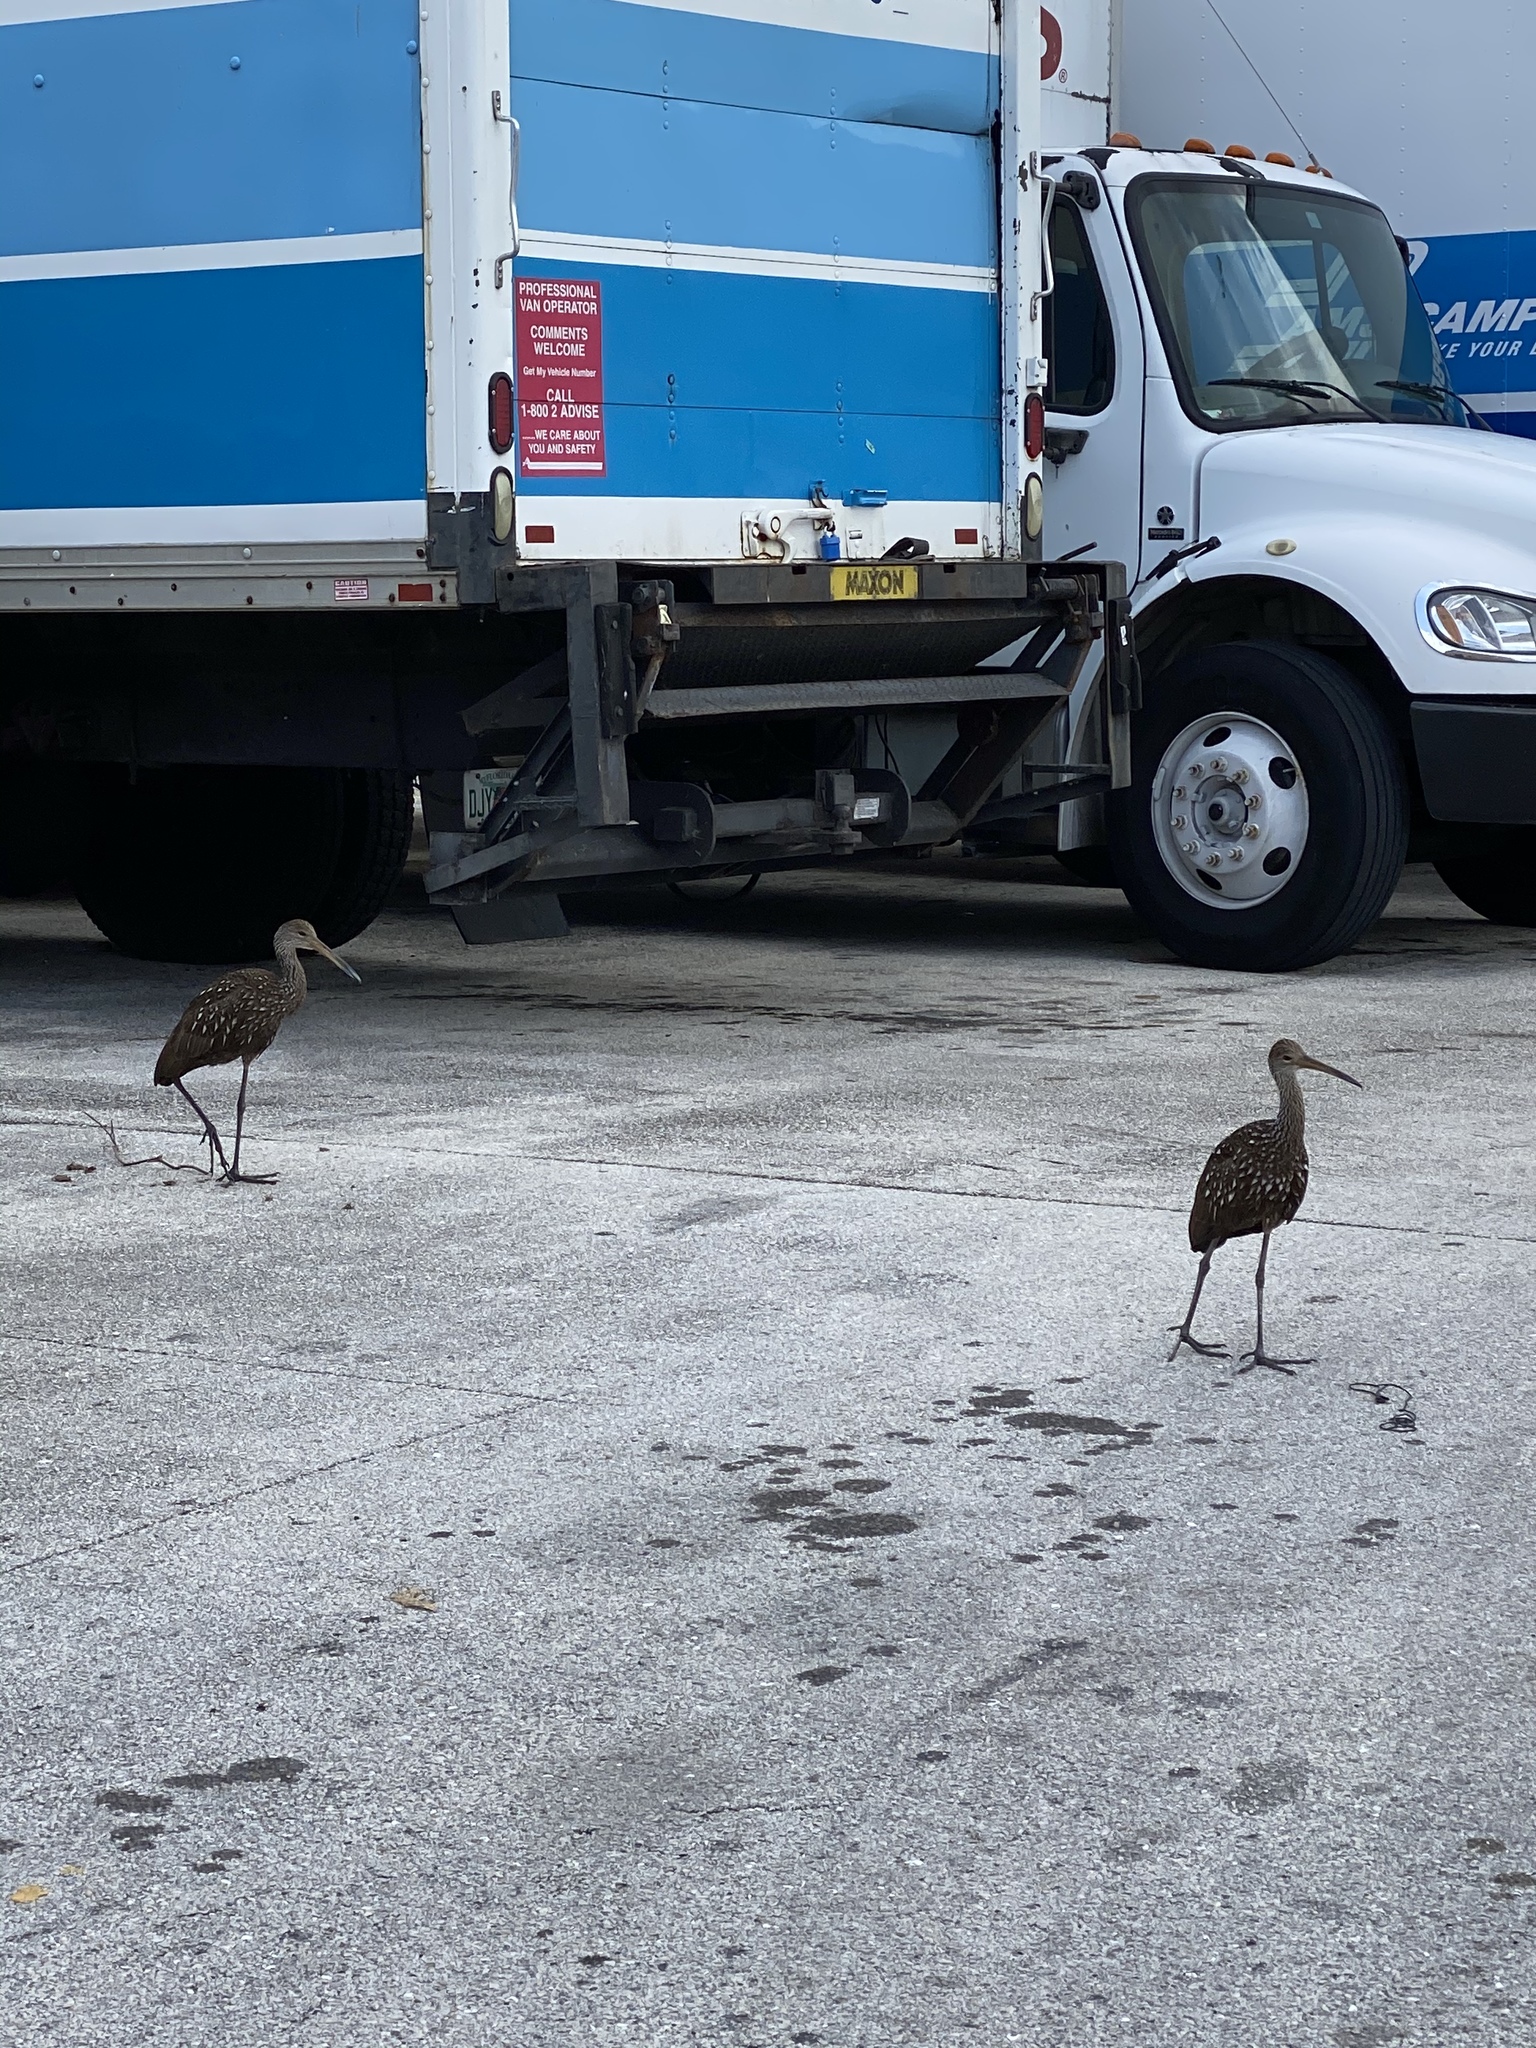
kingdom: Animalia
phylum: Chordata
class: Aves
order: Gruiformes
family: Aramidae
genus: Aramus
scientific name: Aramus guarauna
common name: Limpkin
